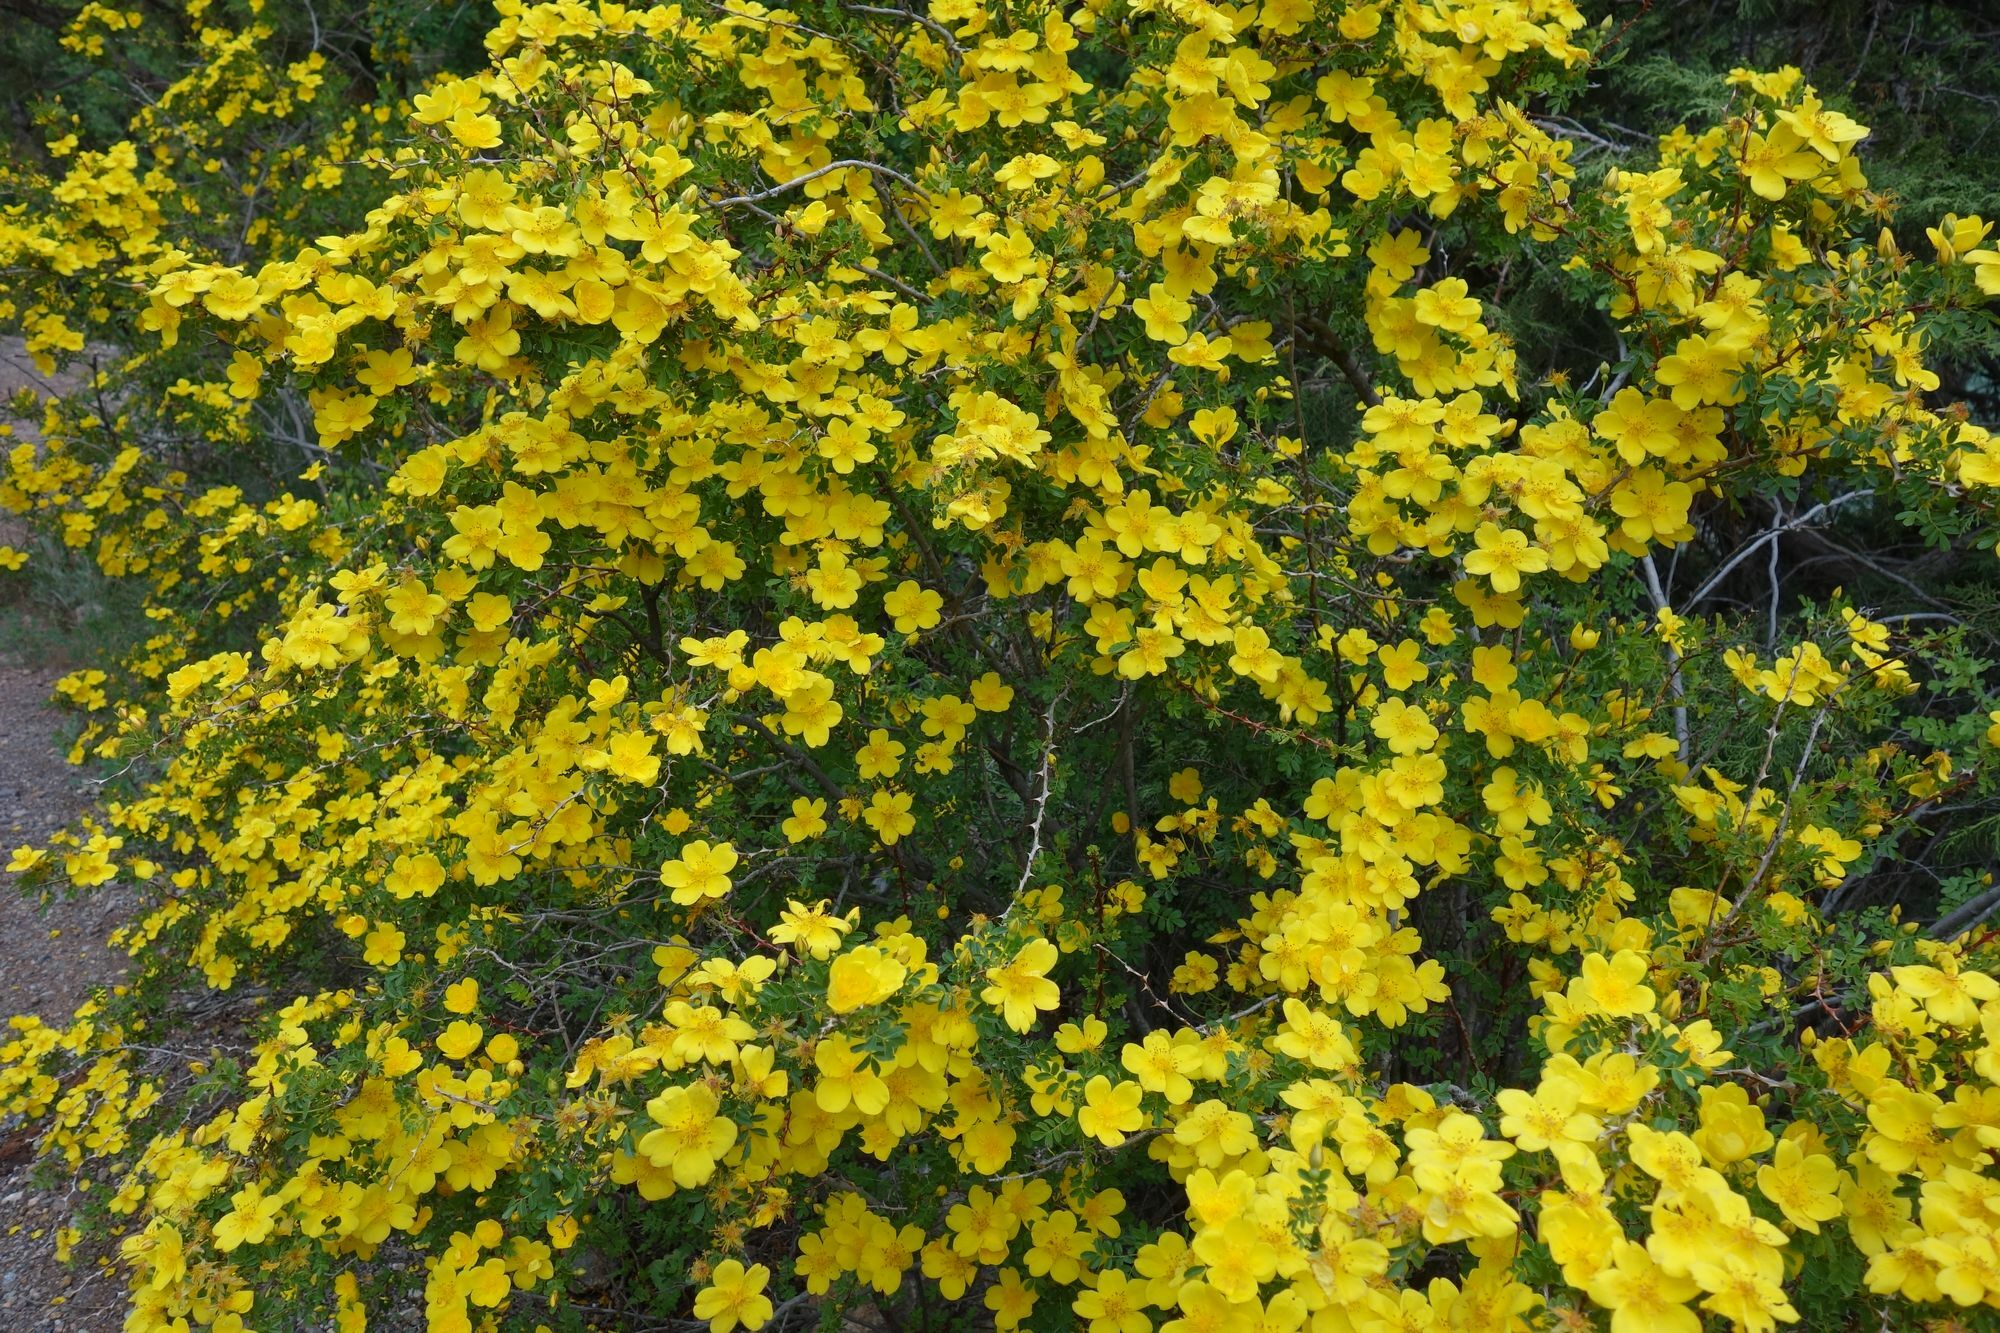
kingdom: Plantae
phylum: Tracheophyta
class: Magnoliopsida
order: Rosales
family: Rosaceae
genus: Rosa
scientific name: Rosa ecae
